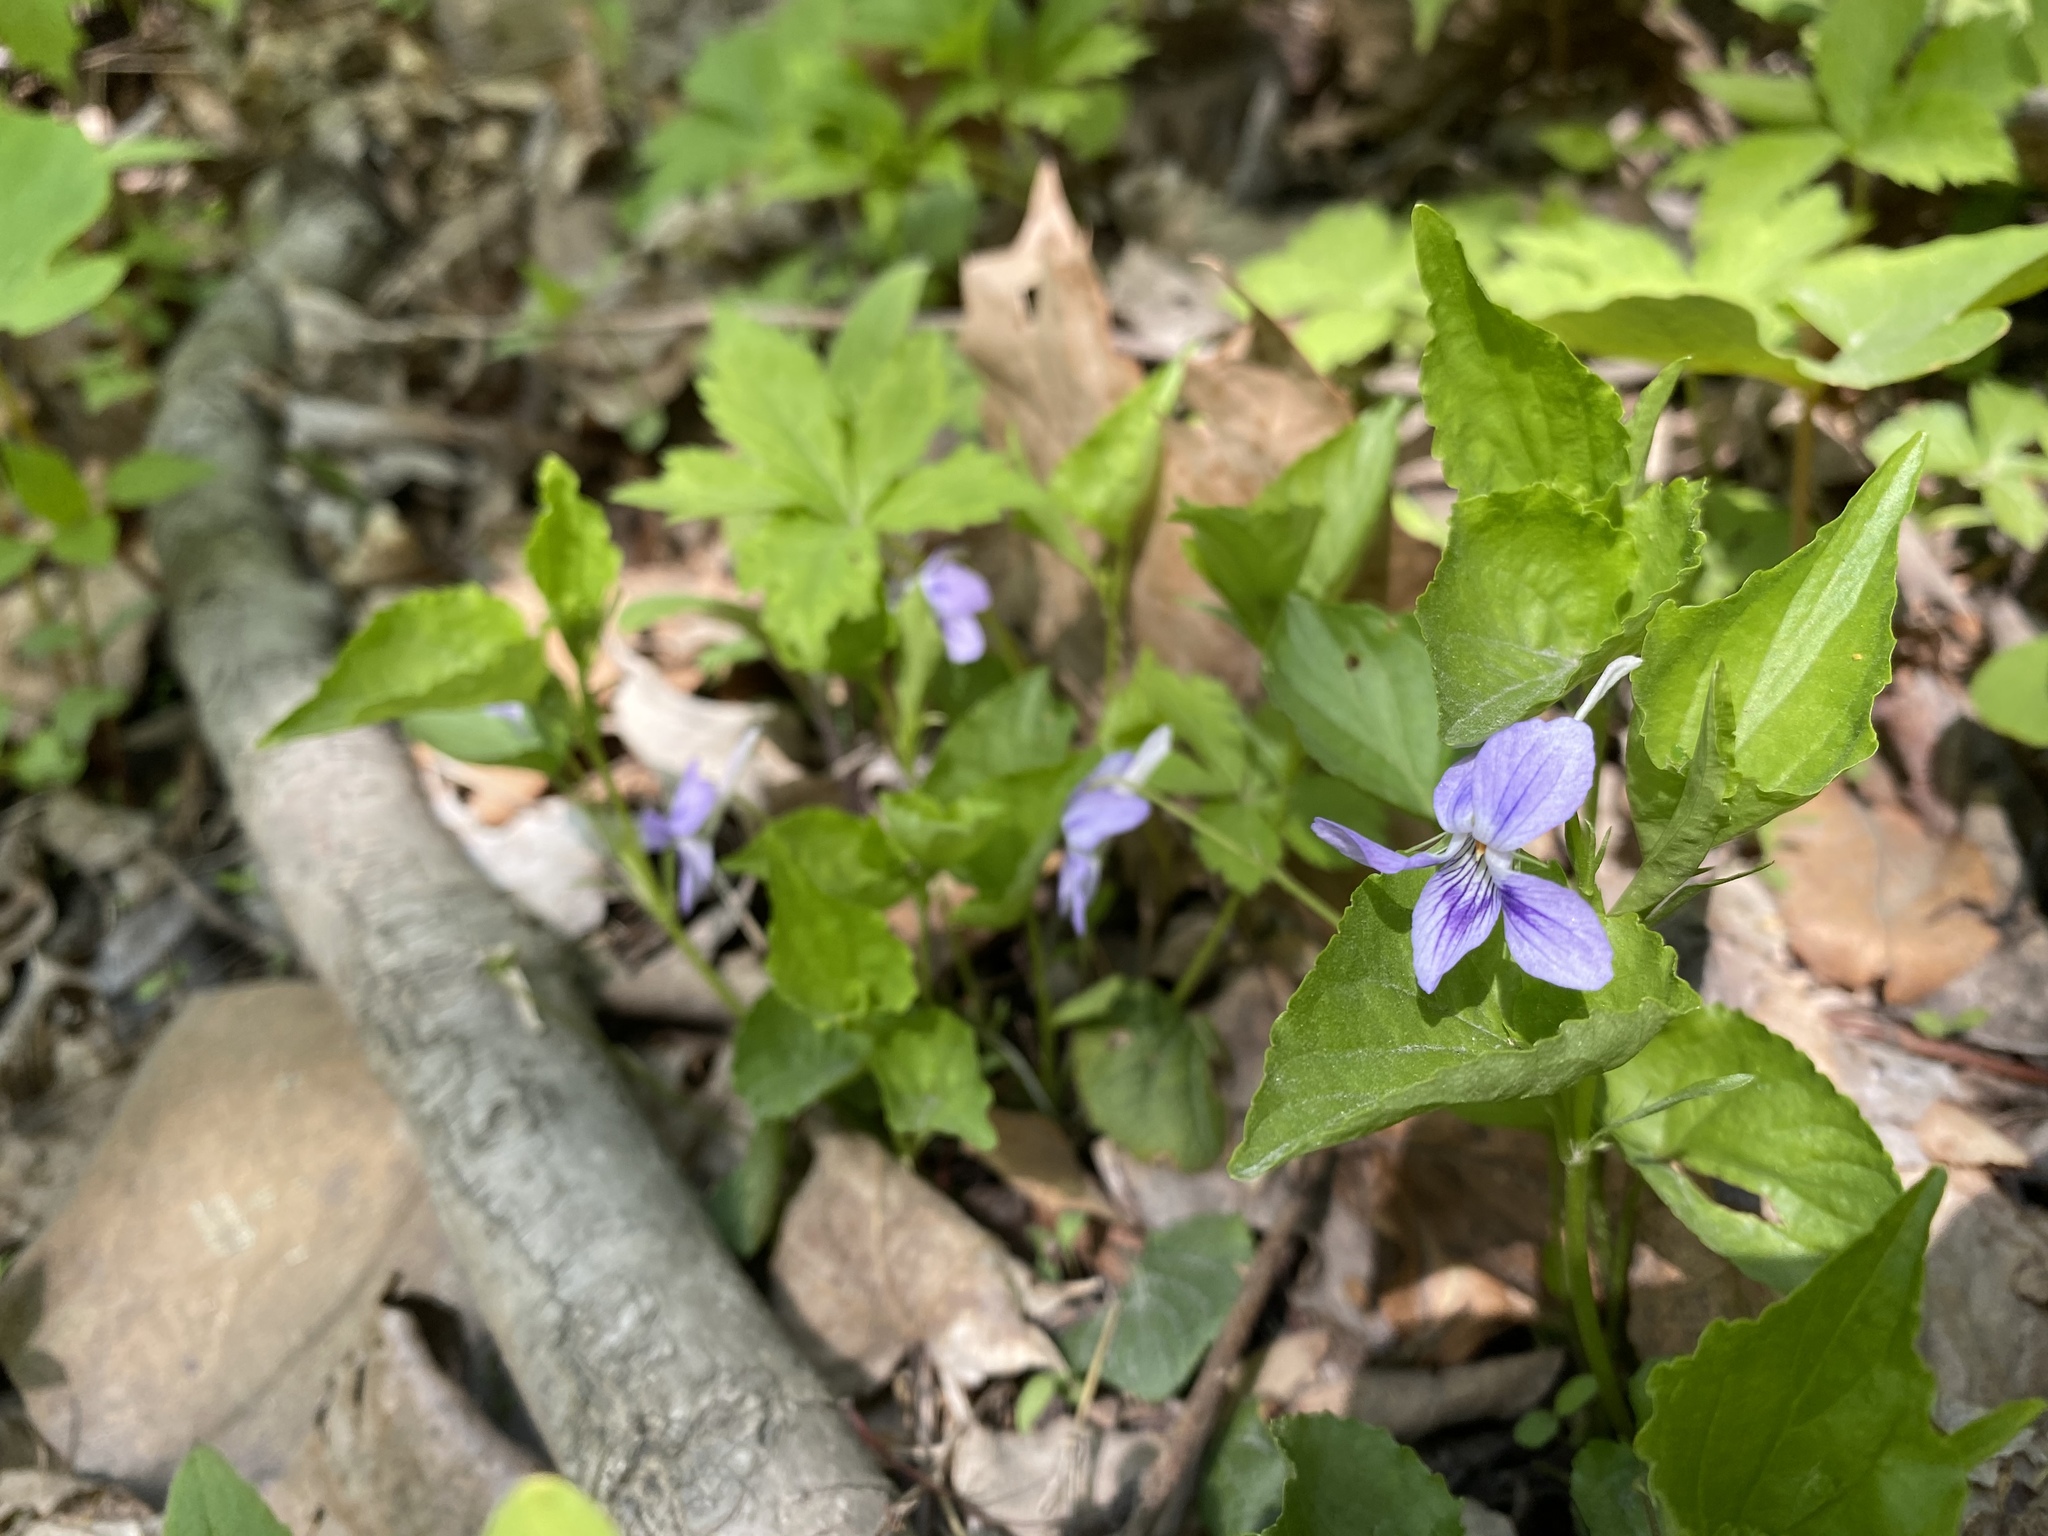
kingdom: Plantae
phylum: Tracheophyta
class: Magnoliopsida
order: Malpighiales
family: Violaceae
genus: Viola
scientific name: Viola rostrata
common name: Long-spur violet
